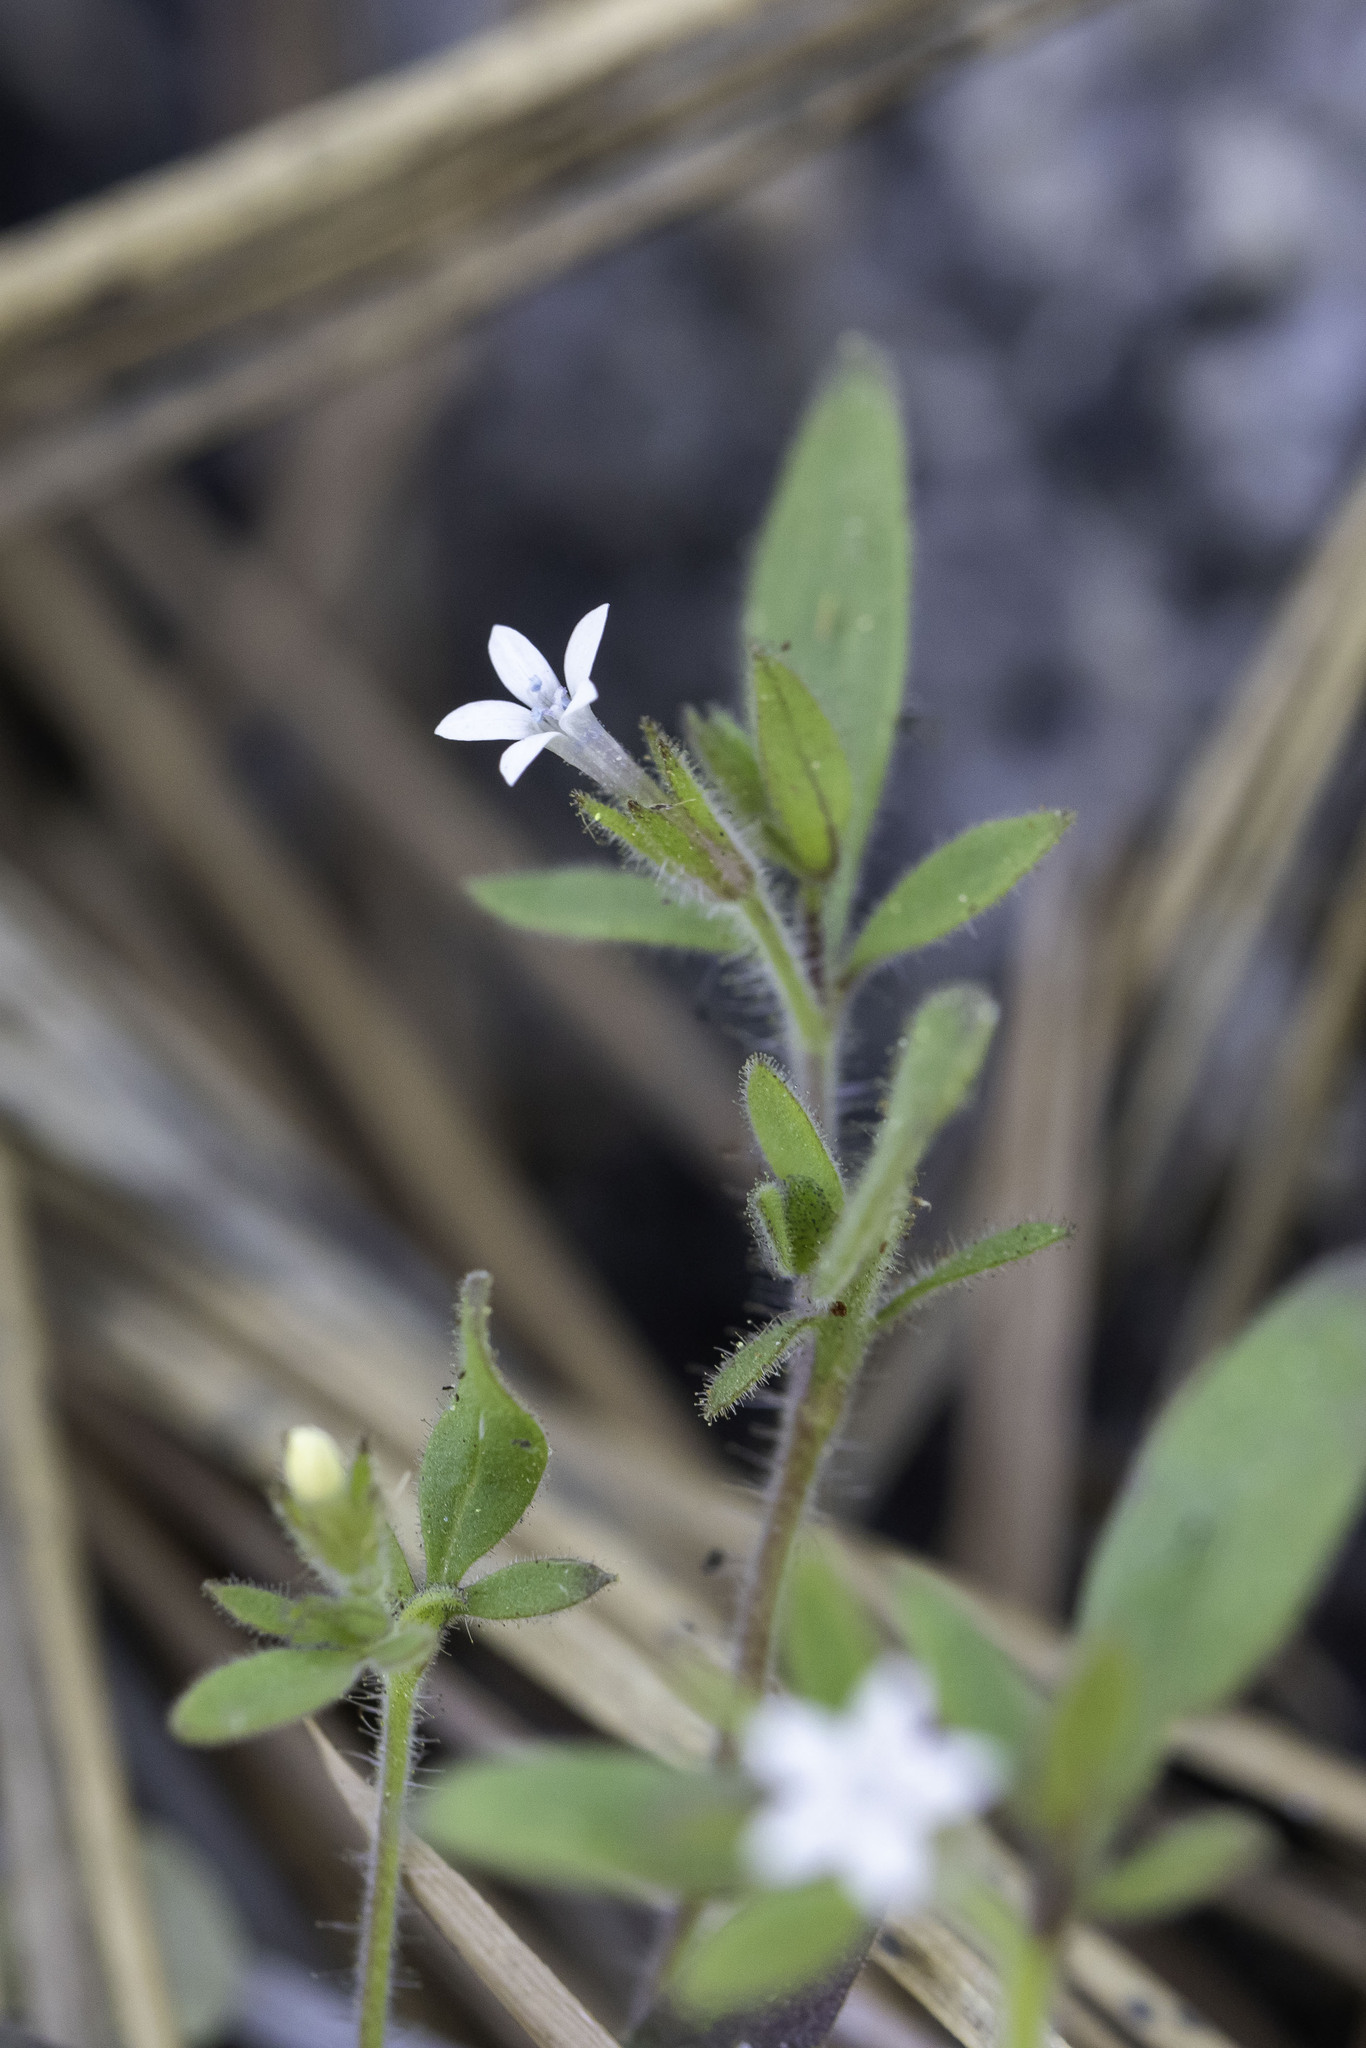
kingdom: Plantae
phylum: Tracheophyta
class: Magnoliopsida
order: Ericales
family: Polemoniaceae
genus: Allophyllum
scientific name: Allophyllum integrifolium
